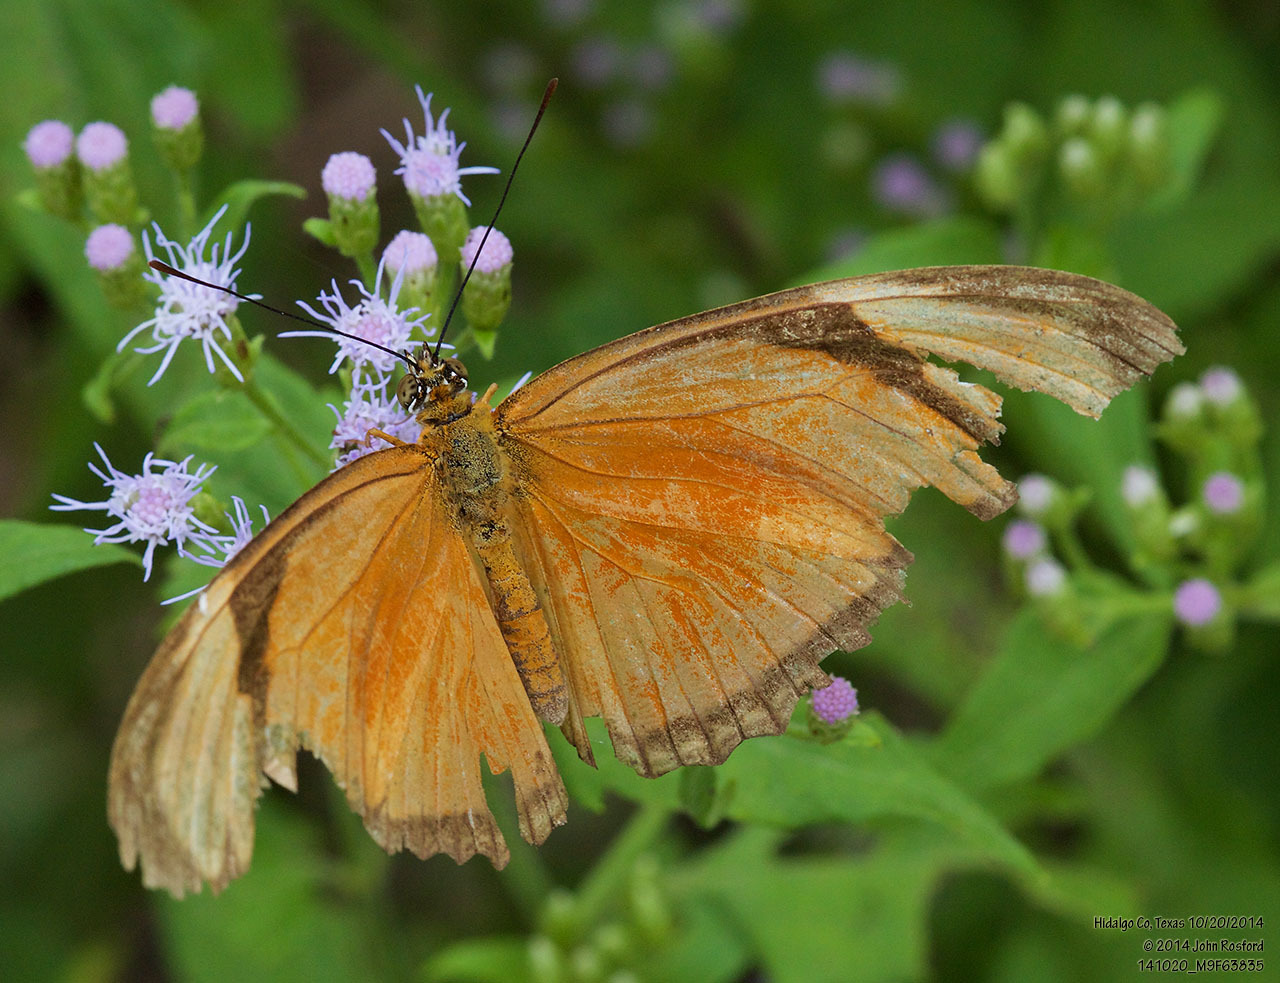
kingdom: Animalia
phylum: Arthropoda
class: Insecta
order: Lepidoptera
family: Nymphalidae
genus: Dryas
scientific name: Dryas iulia
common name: Flambeau
